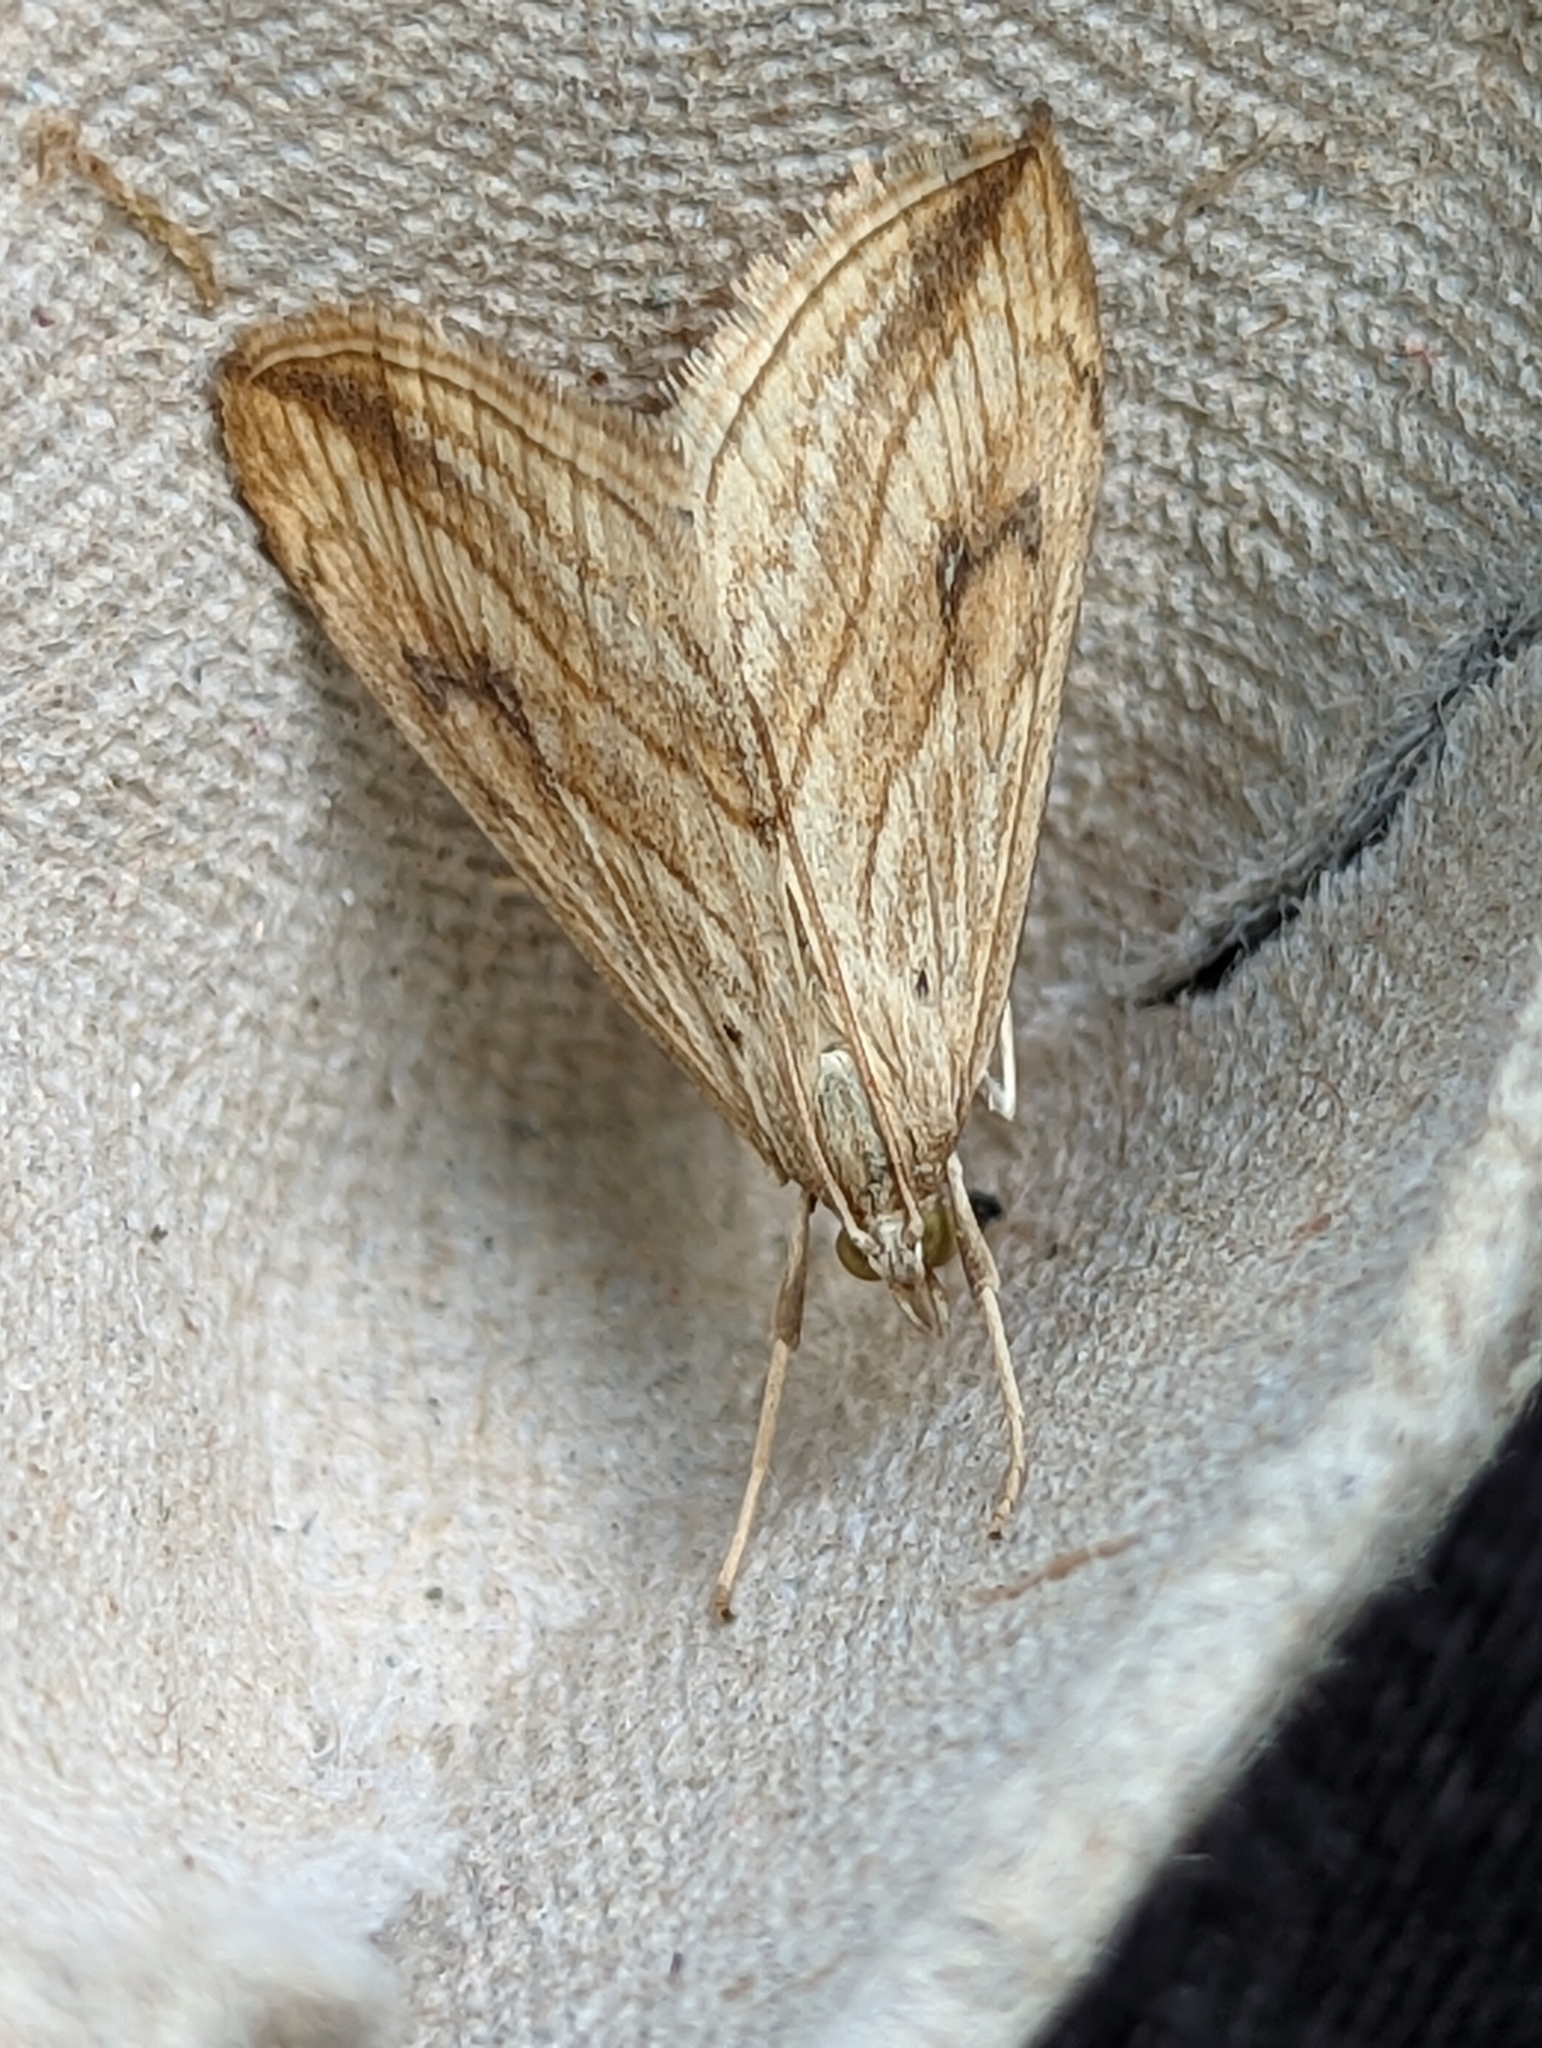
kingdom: Animalia
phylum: Arthropoda
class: Insecta
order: Lepidoptera
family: Crambidae
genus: Evergestis
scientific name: Evergestis forficalis
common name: Garden pebble
